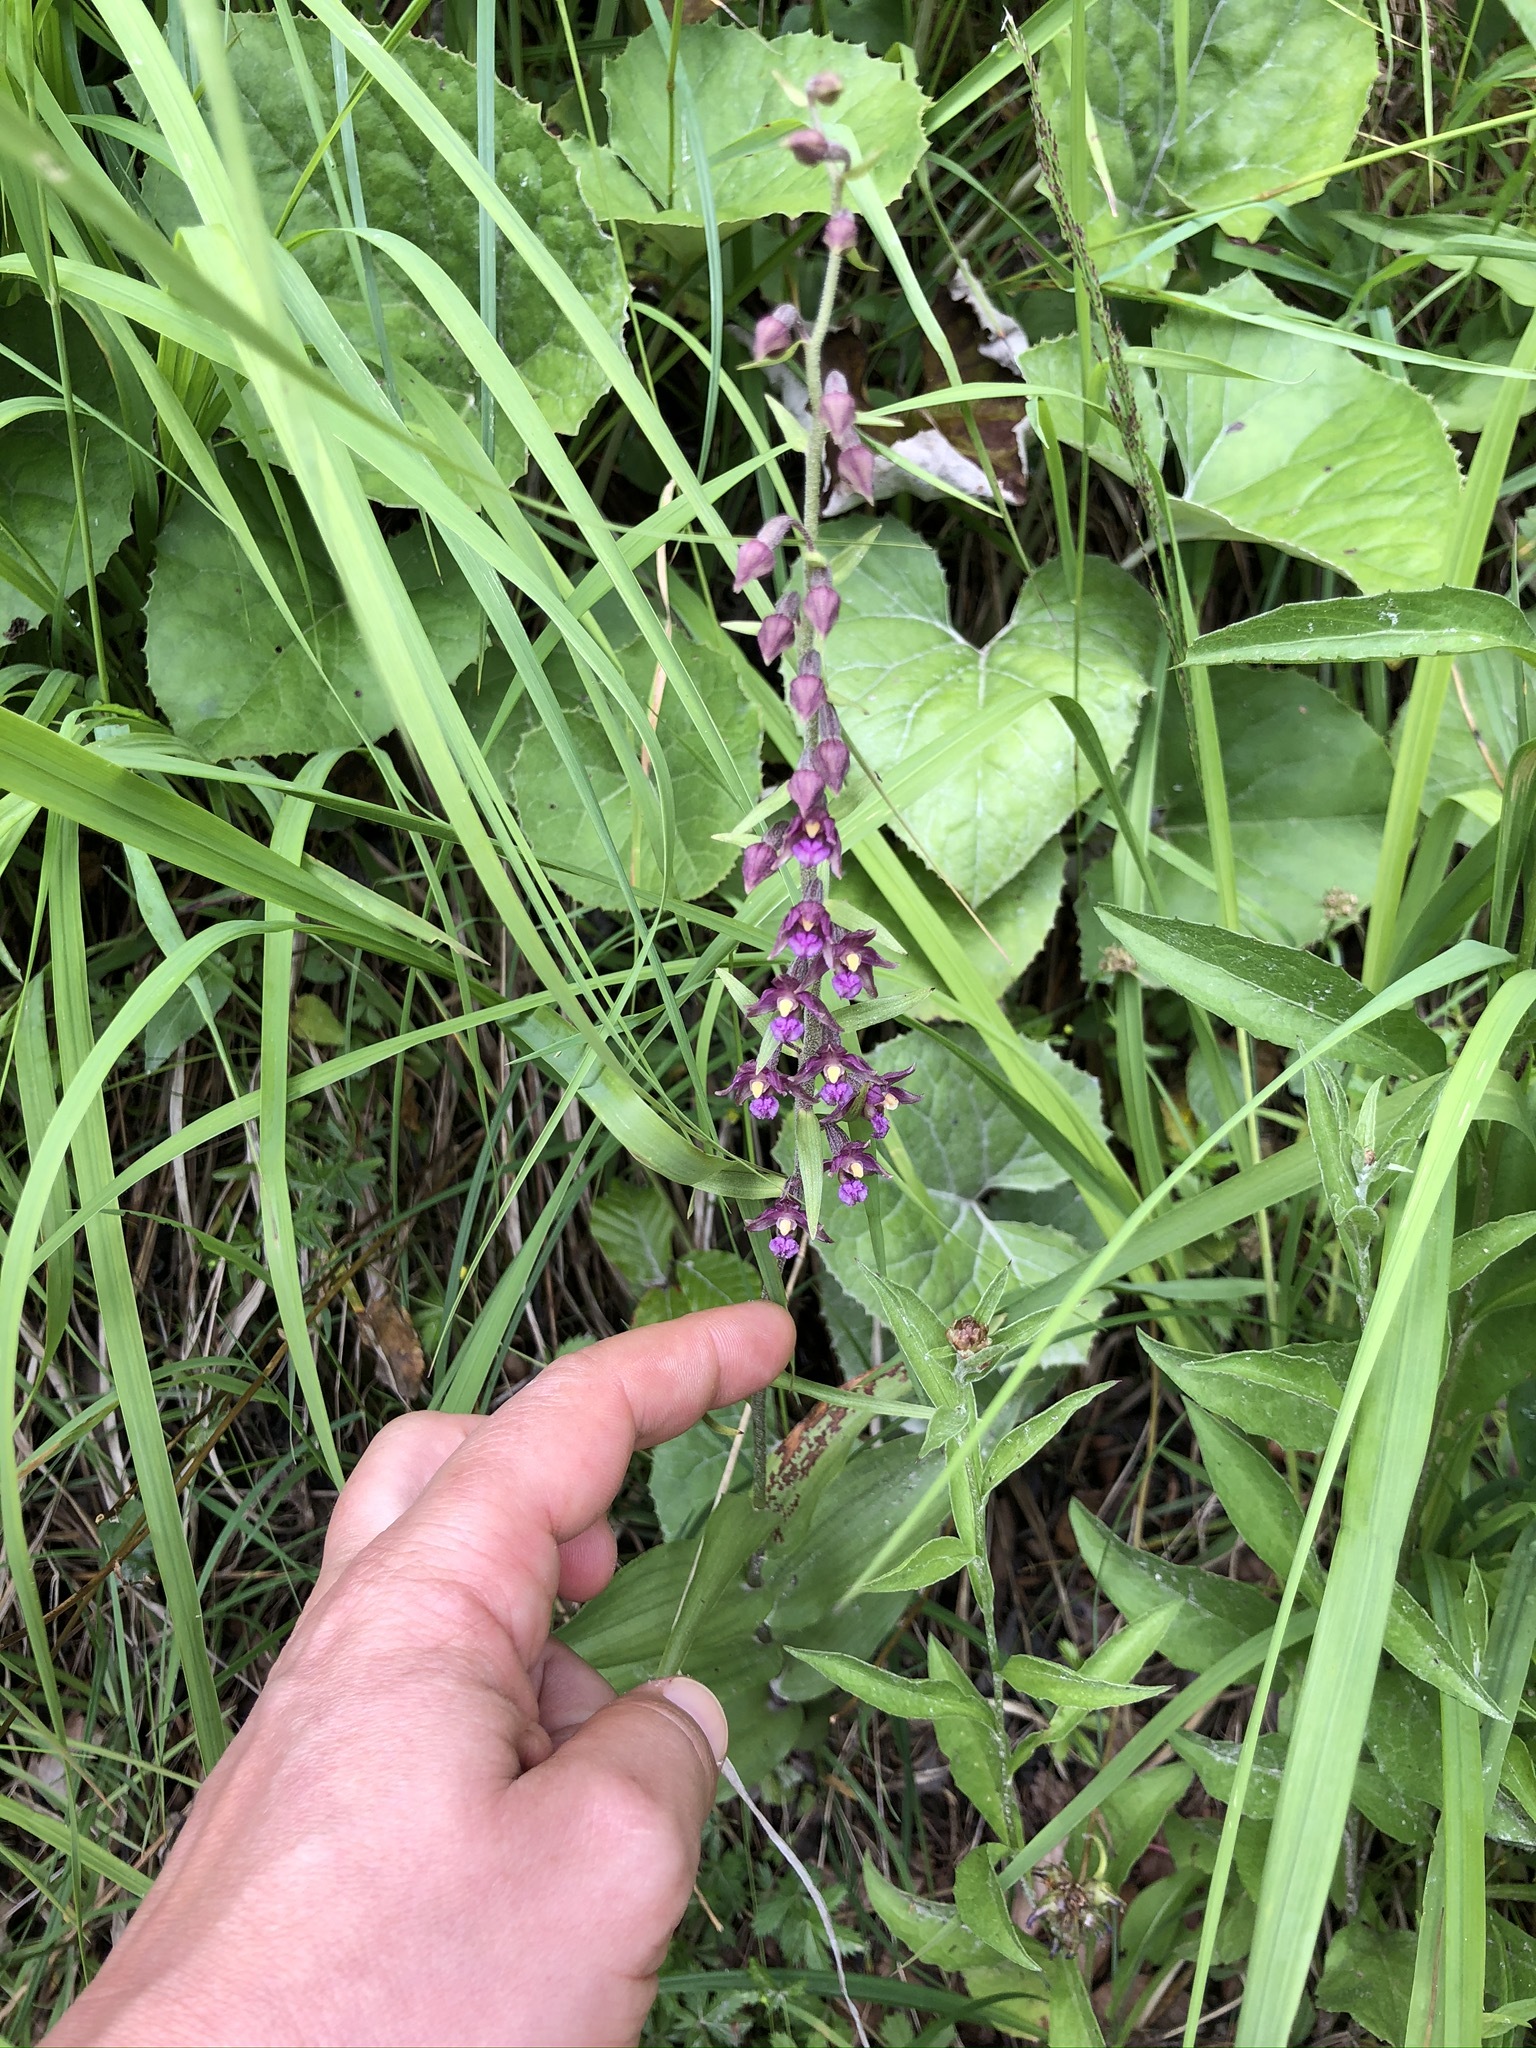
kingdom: Plantae
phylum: Tracheophyta
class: Liliopsida
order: Asparagales
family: Orchidaceae
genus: Epipactis
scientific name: Epipactis atrorubens
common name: Dark-red helleborine
